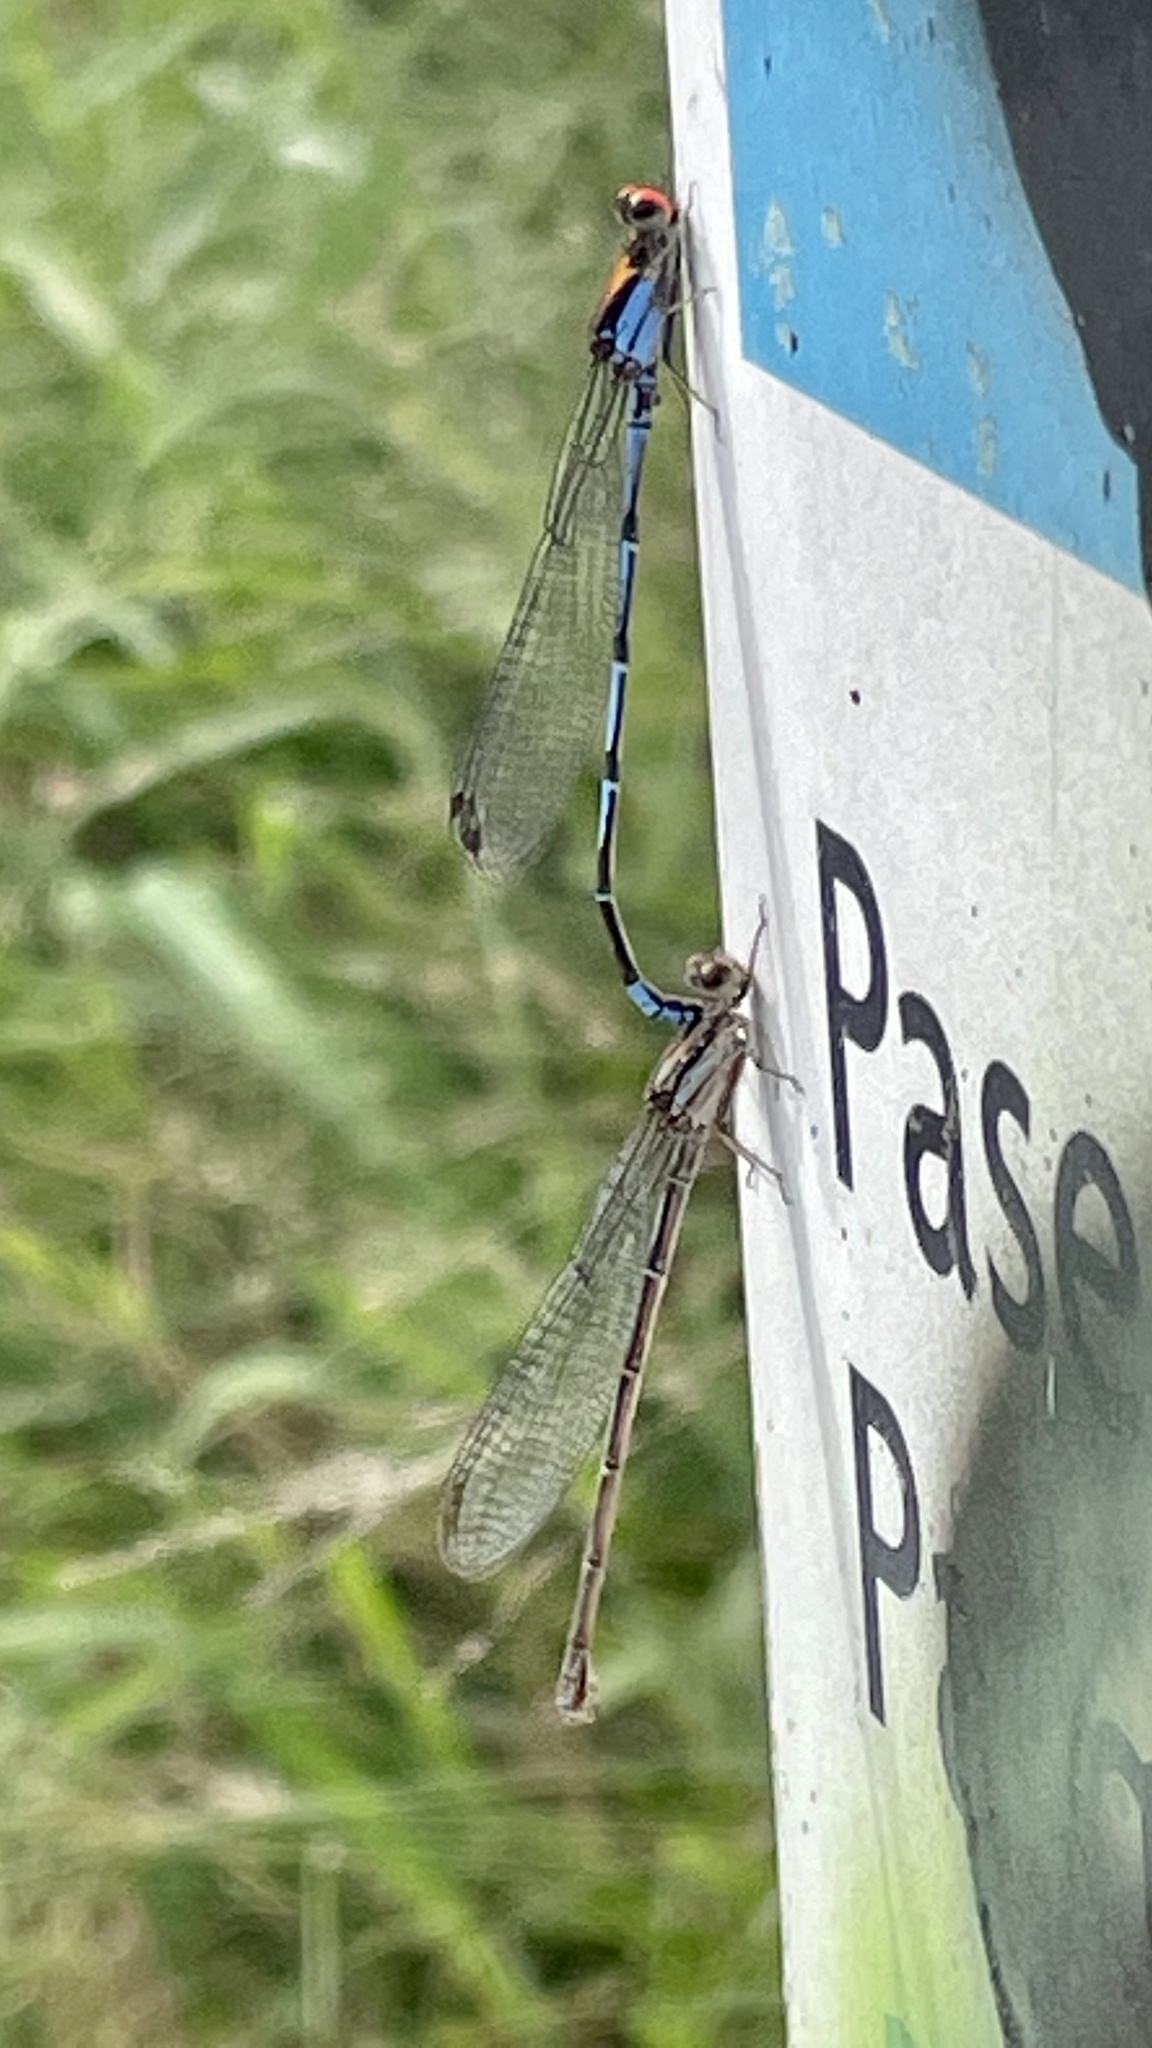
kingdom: Animalia
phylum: Arthropoda
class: Insecta
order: Odonata
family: Coenagrionidae
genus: Argia
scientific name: Argia oenea
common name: Fiery-eyed dancer
